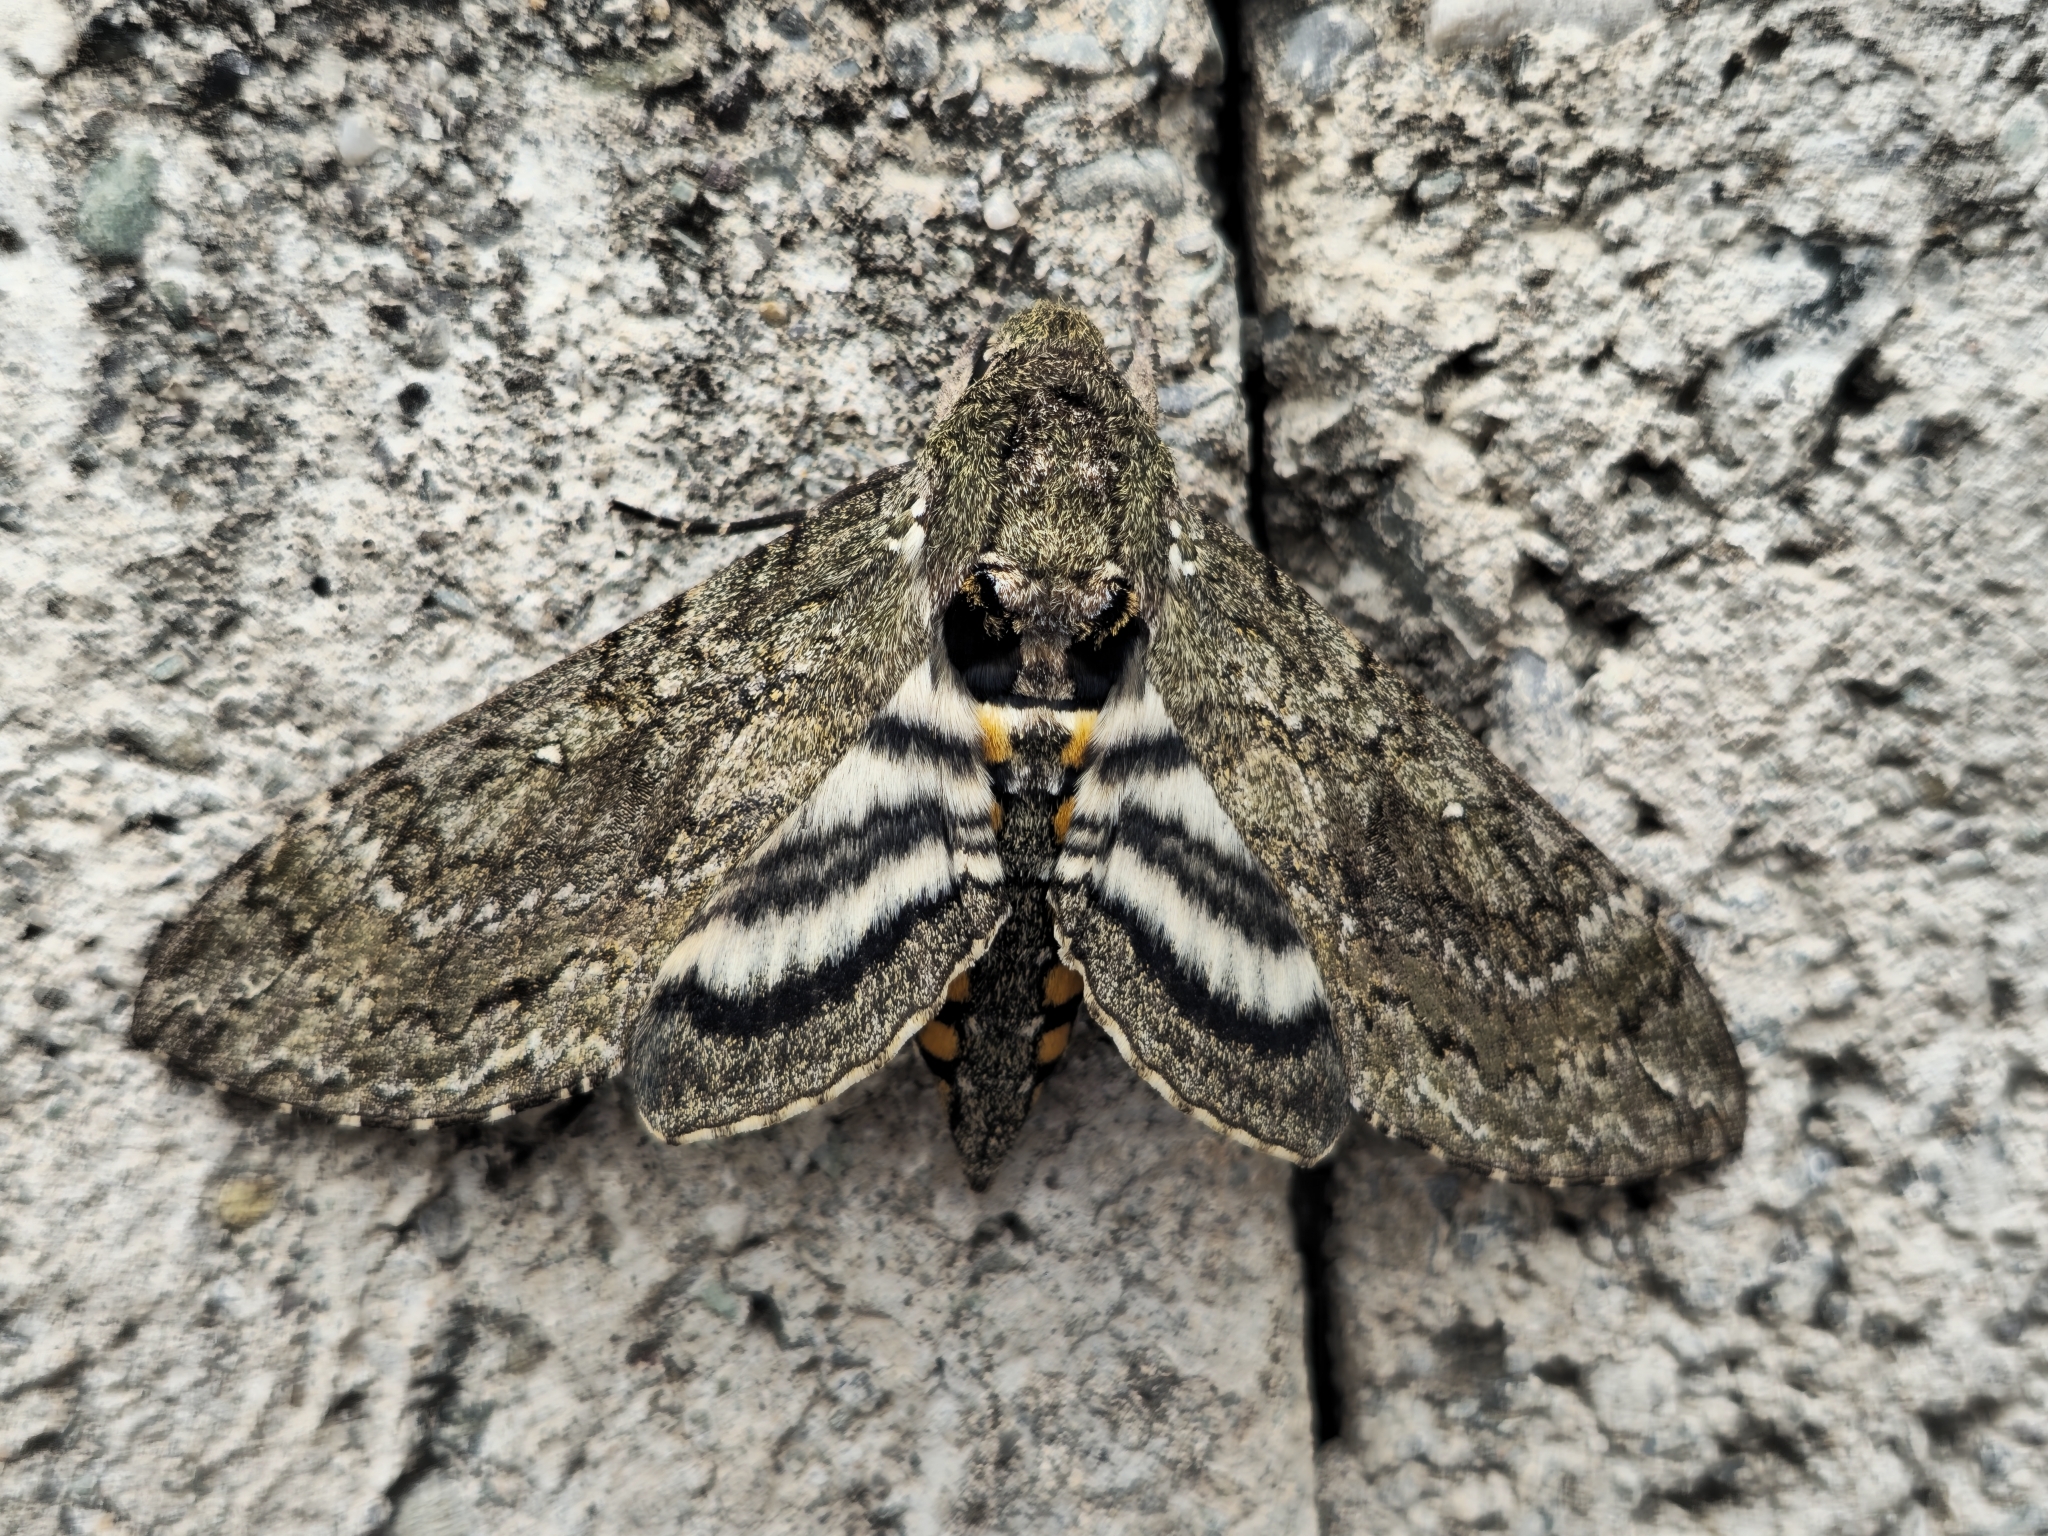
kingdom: Animalia
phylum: Arthropoda
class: Insecta
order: Lepidoptera
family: Sphingidae
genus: Manduca
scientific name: Manduca afflicta
